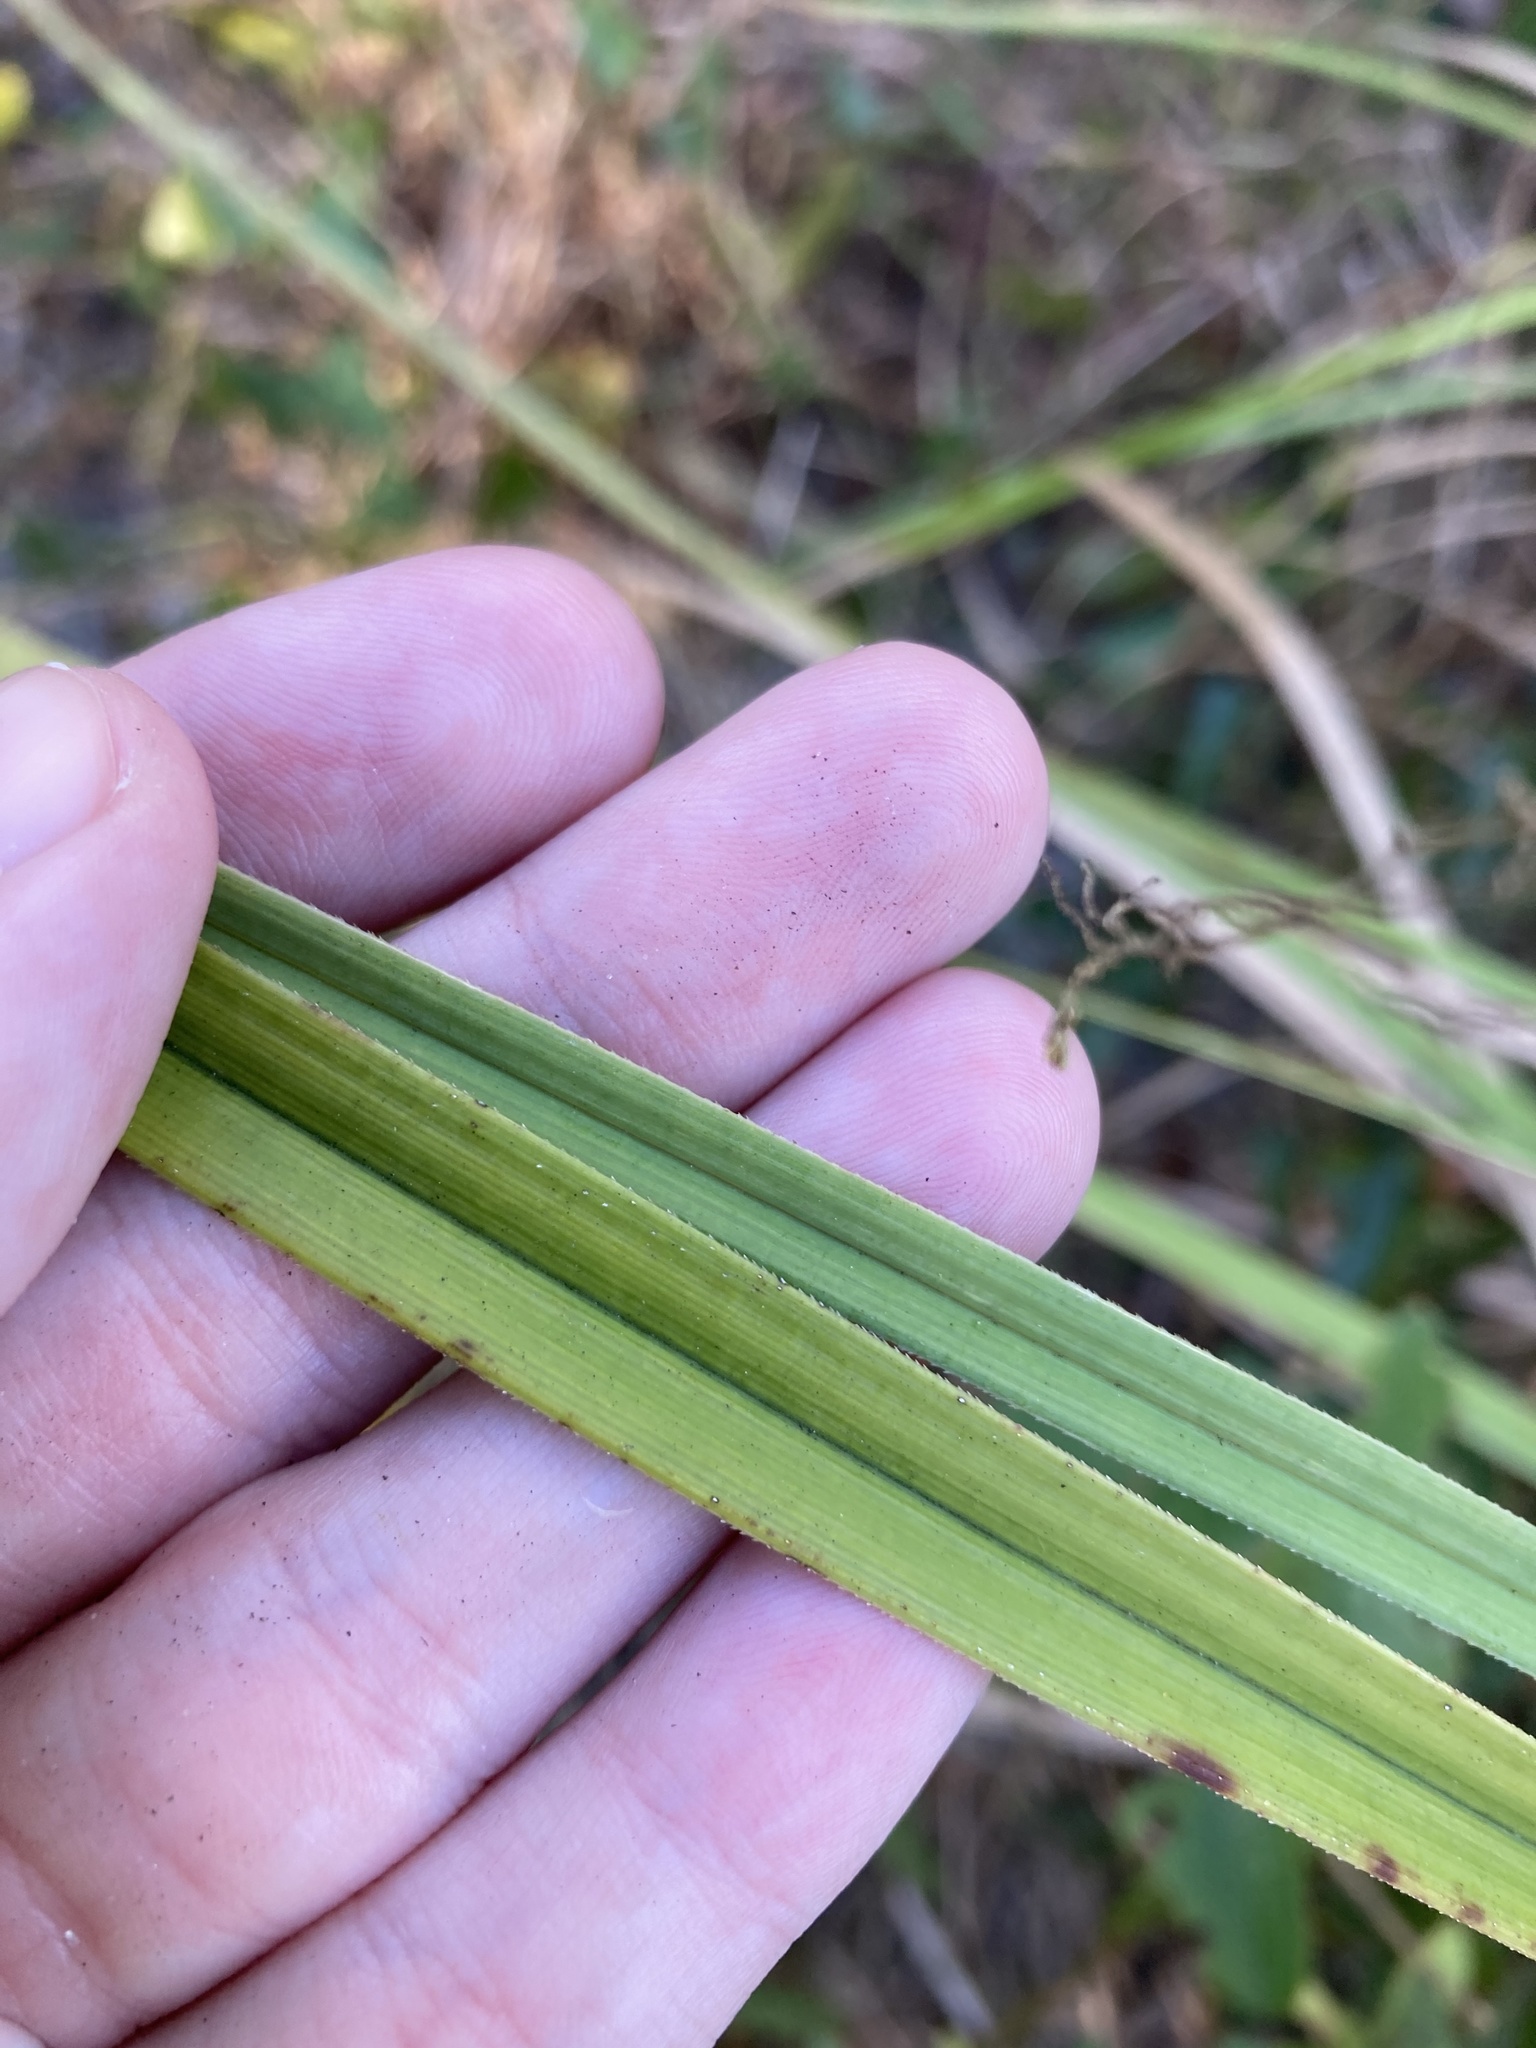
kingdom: Plantae
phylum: Tracheophyta
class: Liliopsida
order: Poales
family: Cyperaceae
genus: Cyperus
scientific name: Cyperus ligularis
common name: Swamp flat sedge
